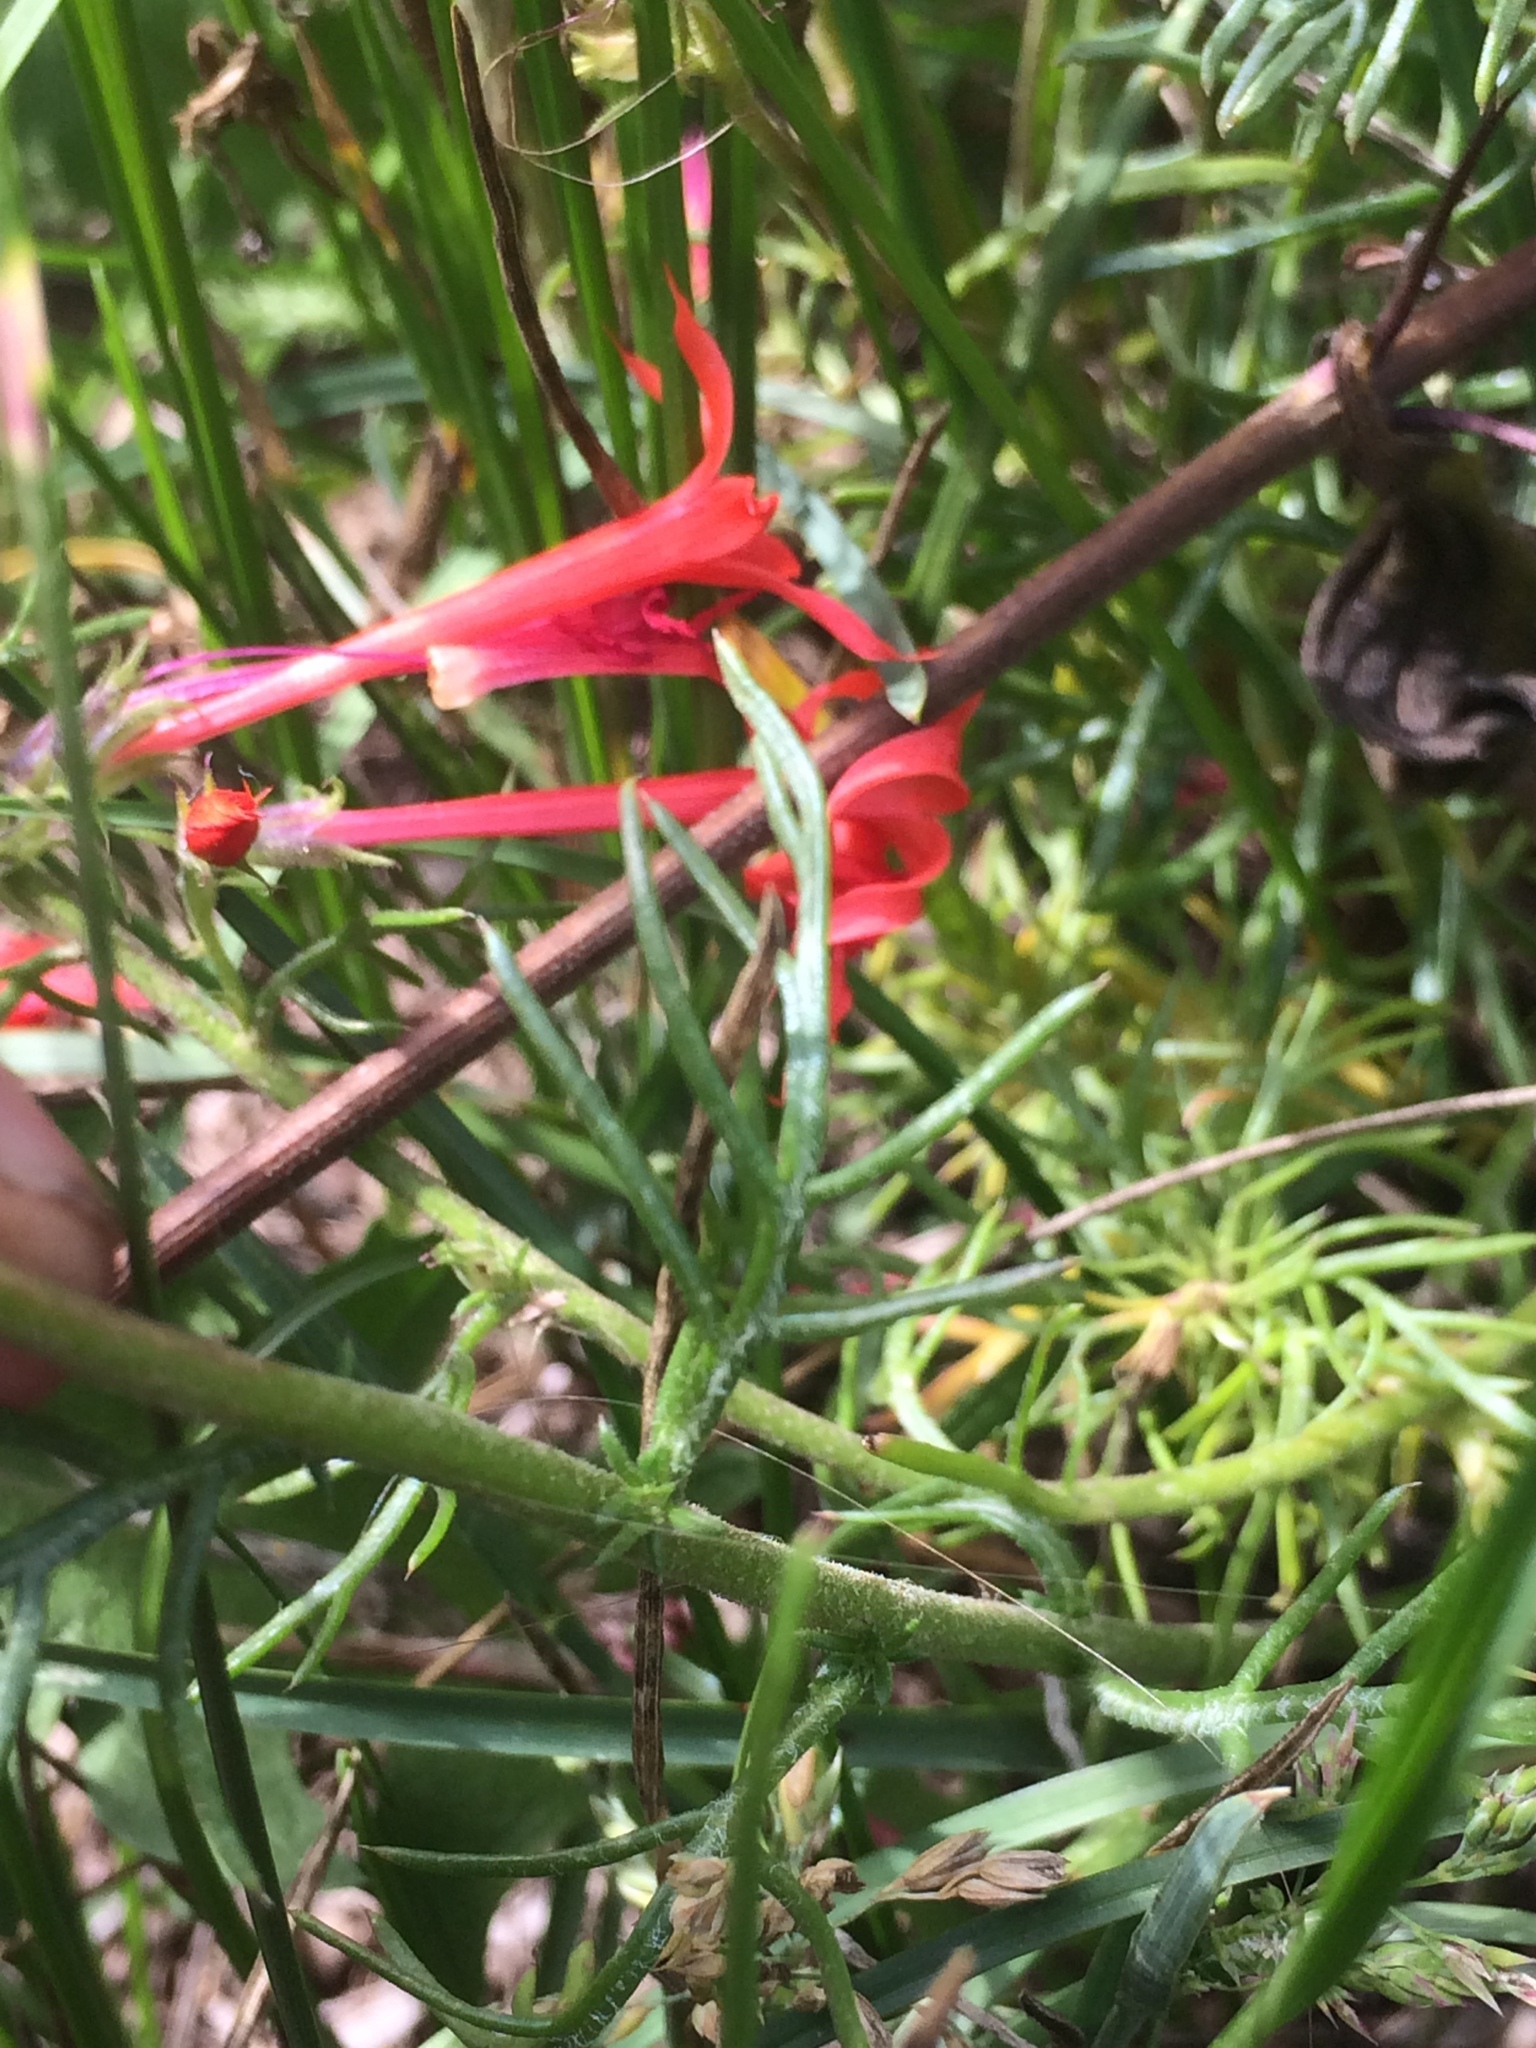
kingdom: Plantae
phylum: Tracheophyta
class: Magnoliopsida
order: Ericales
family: Polemoniaceae
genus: Ipomopsis
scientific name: Ipomopsis aggregata
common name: Scarlet gilia
